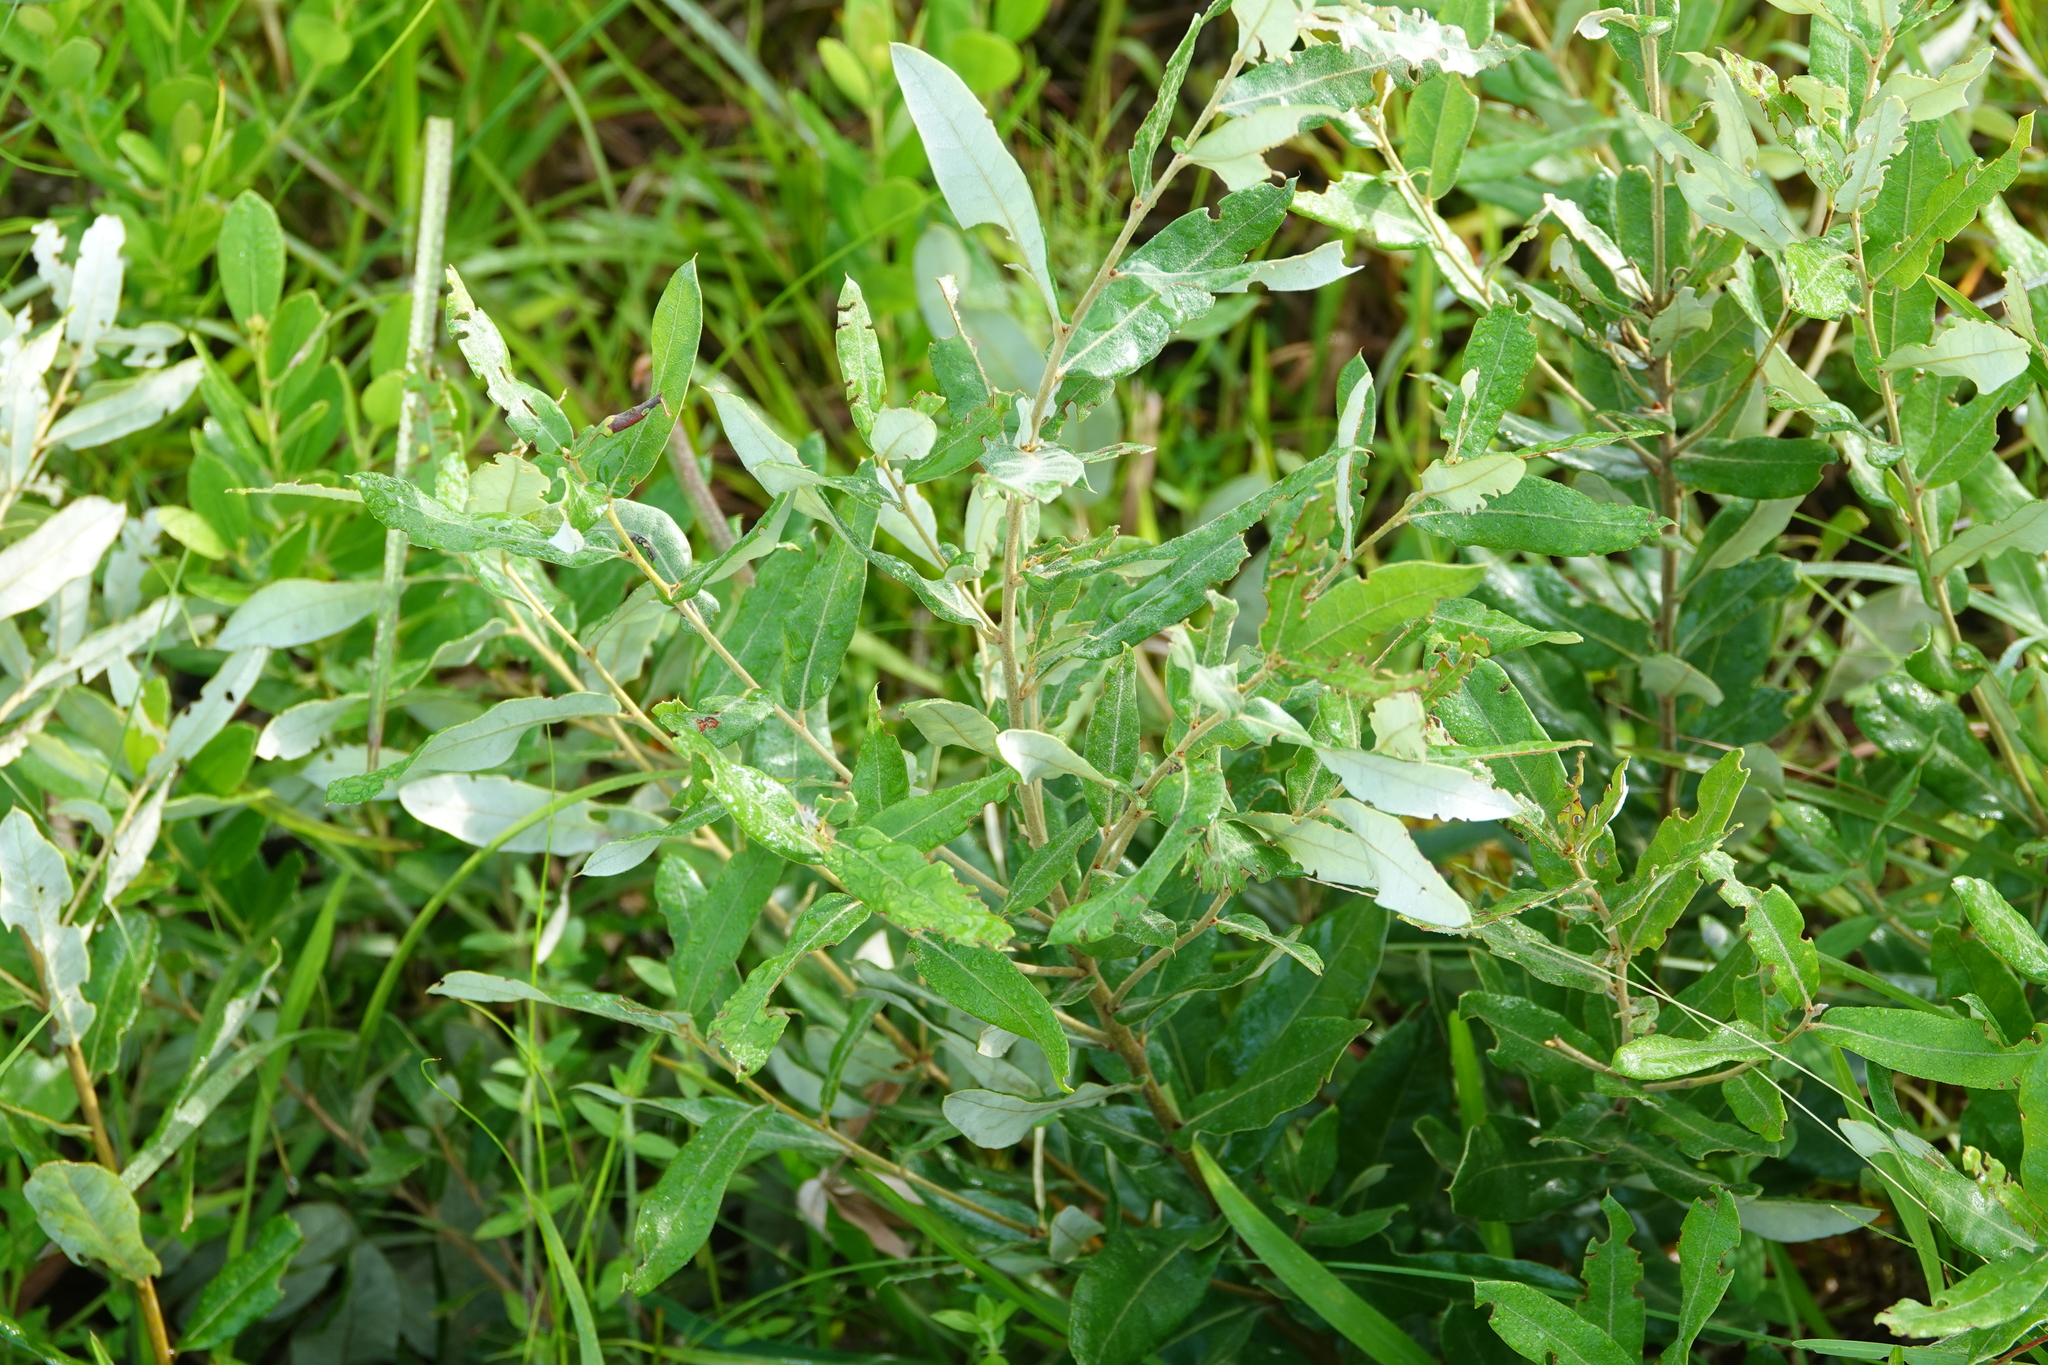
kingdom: Plantae
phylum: Tracheophyta
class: Magnoliopsida
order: Fagales
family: Fagaceae
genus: Quercus
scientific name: Quercus pumila
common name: Runner oak
